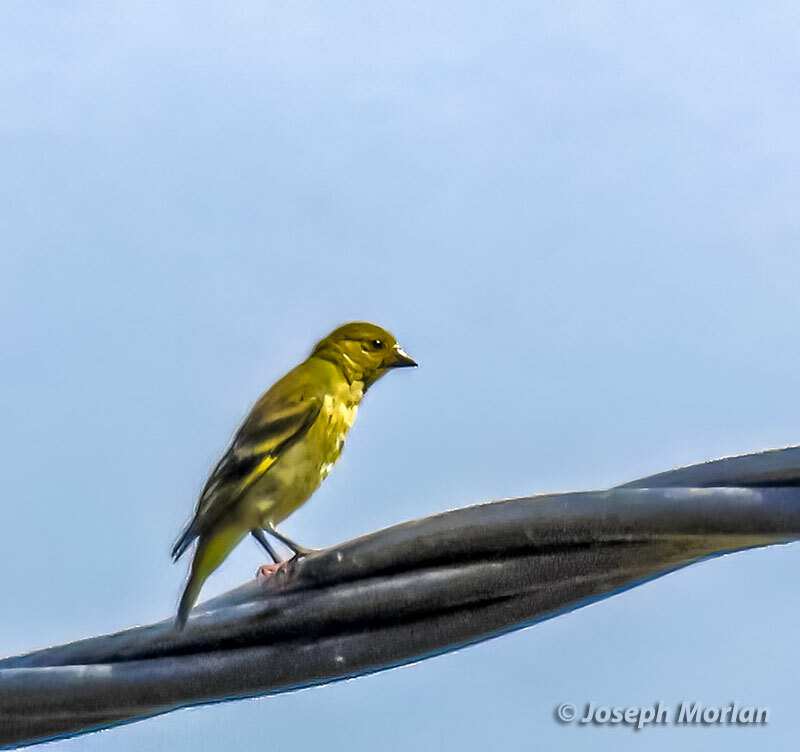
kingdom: Animalia
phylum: Chordata
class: Aves
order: Passeriformes
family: Fringillidae
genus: Spinus
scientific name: Spinus magellanicus
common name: Hooded siskin
